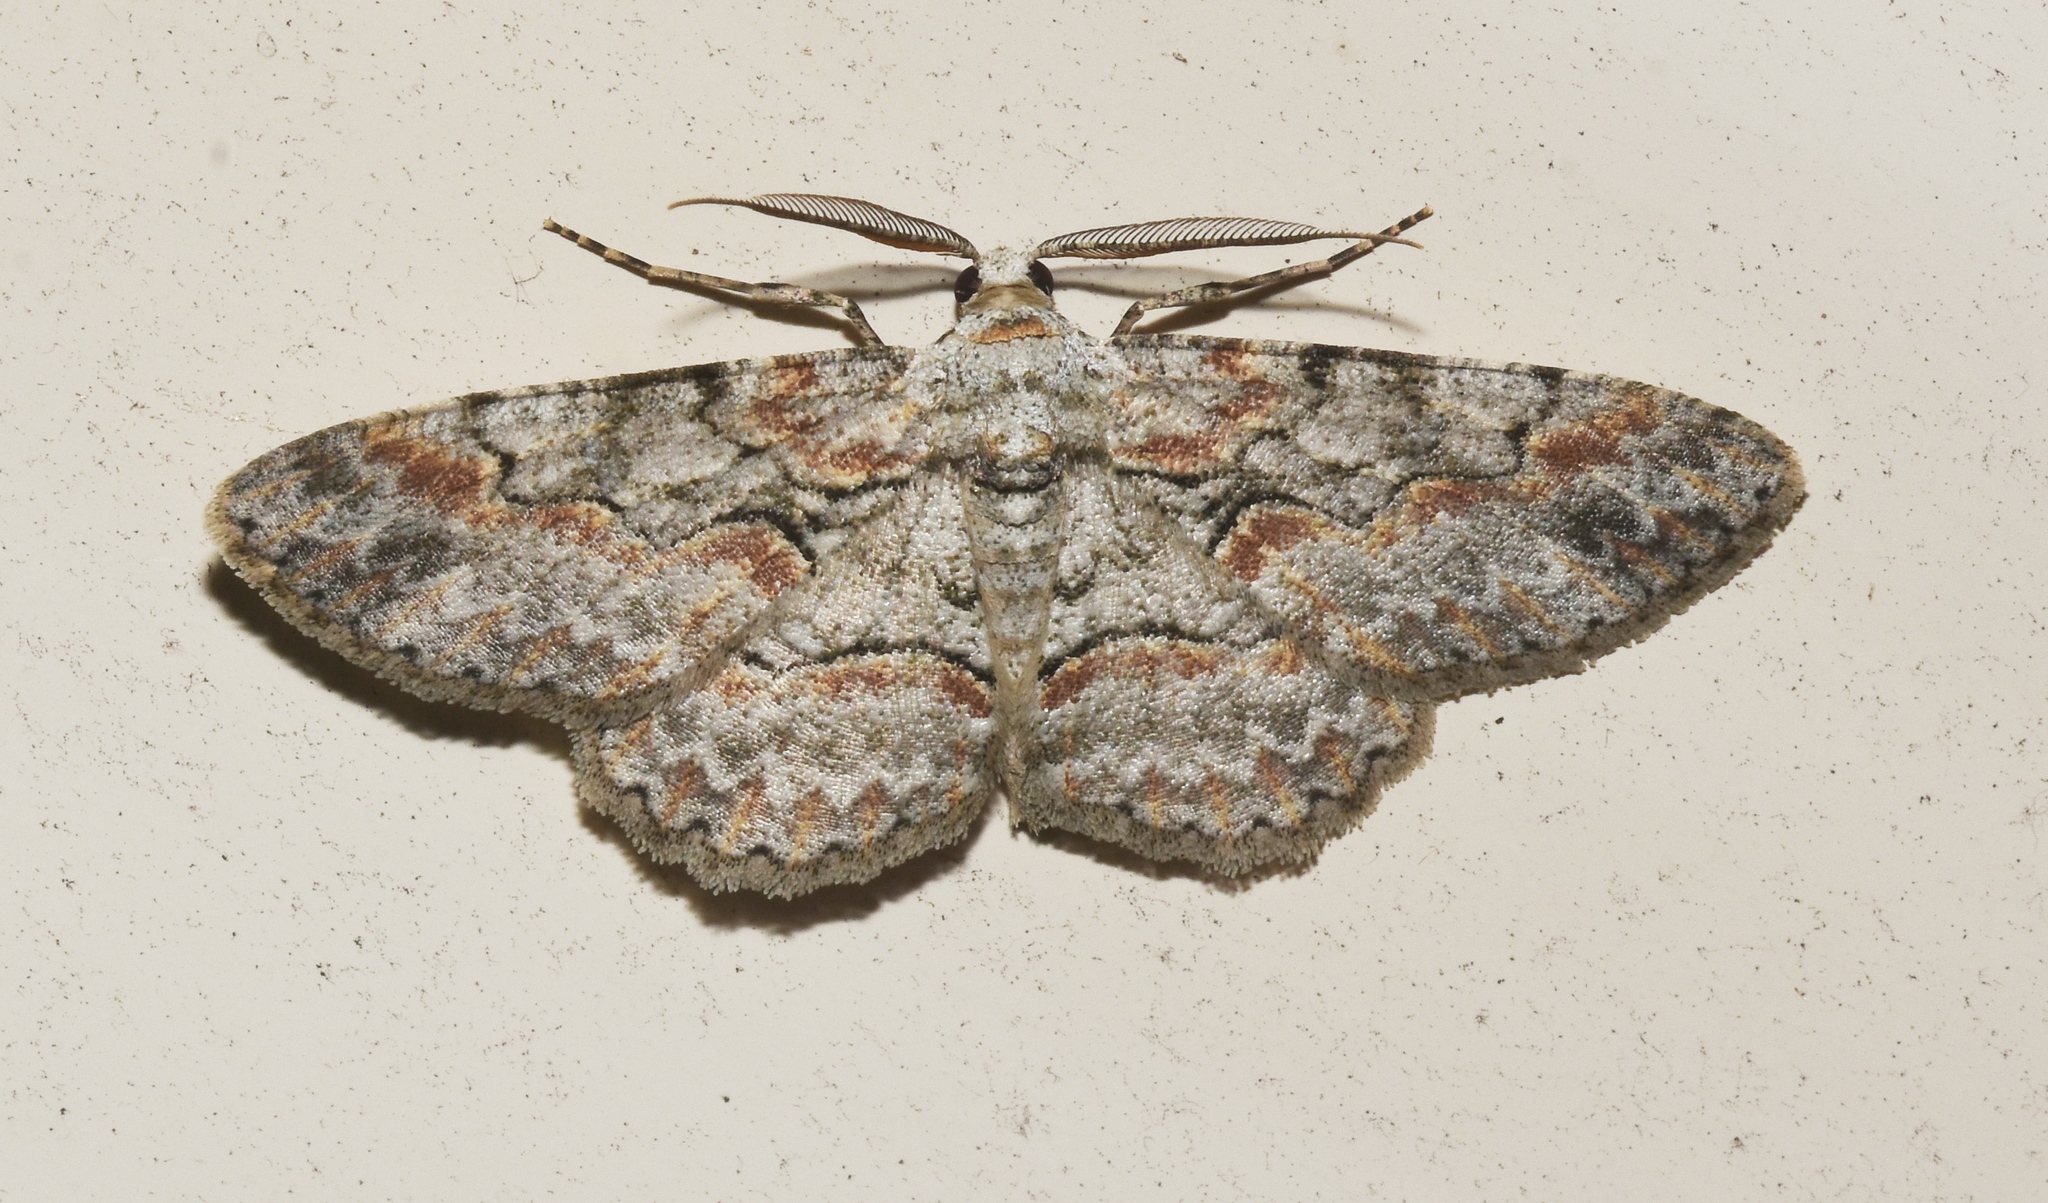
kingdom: Animalia
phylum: Arthropoda
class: Insecta
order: Lepidoptera
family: Geometridae
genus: Iridopsis
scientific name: Iridopsis defectaria
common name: Brown-shaded gray
